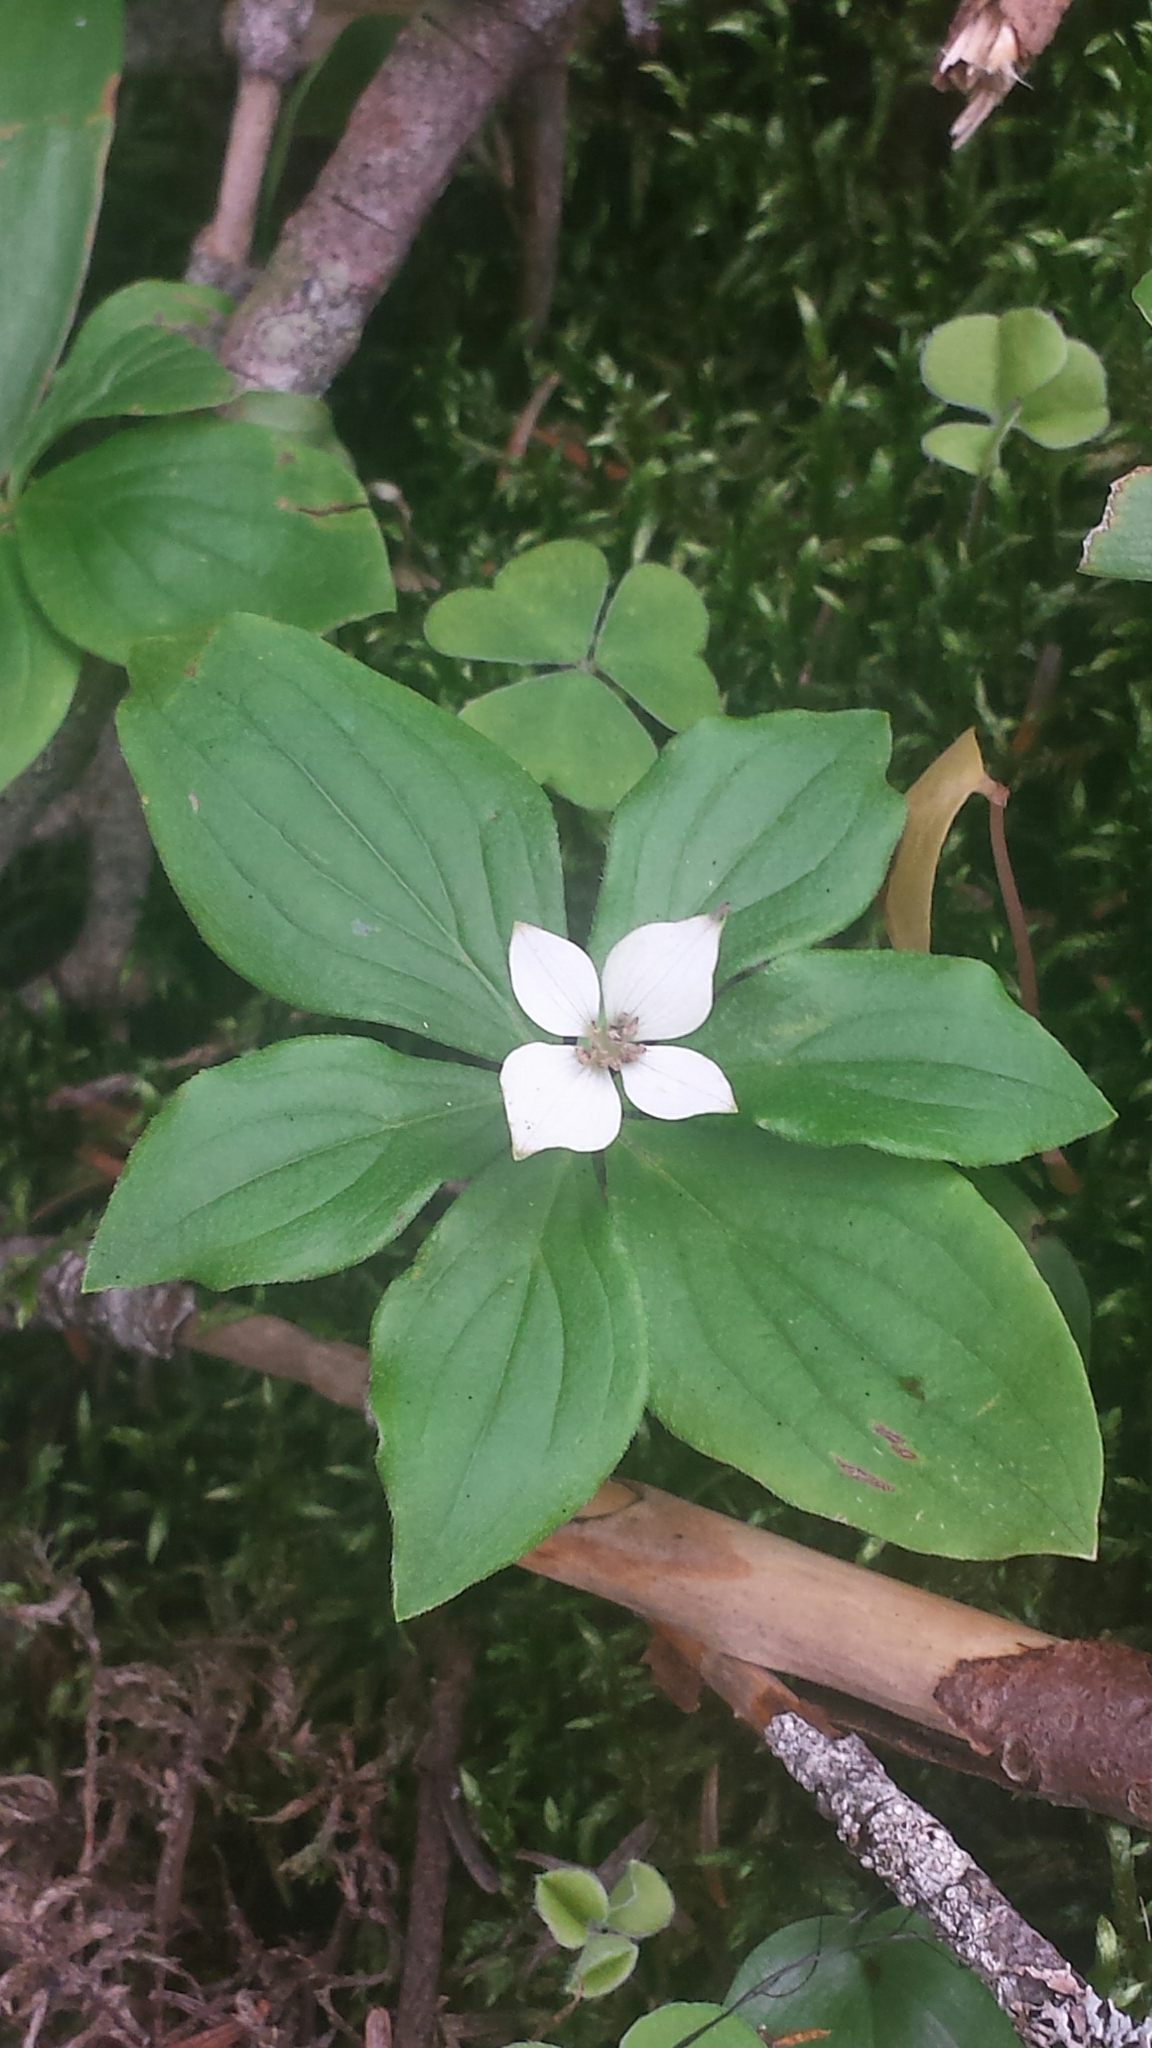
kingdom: Plantae
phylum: Tracheophyta
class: Magnoliopsida
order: Cornales
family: Cornaceae
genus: Cornus
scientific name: Cornus canadensis
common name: Creeping dogwood
